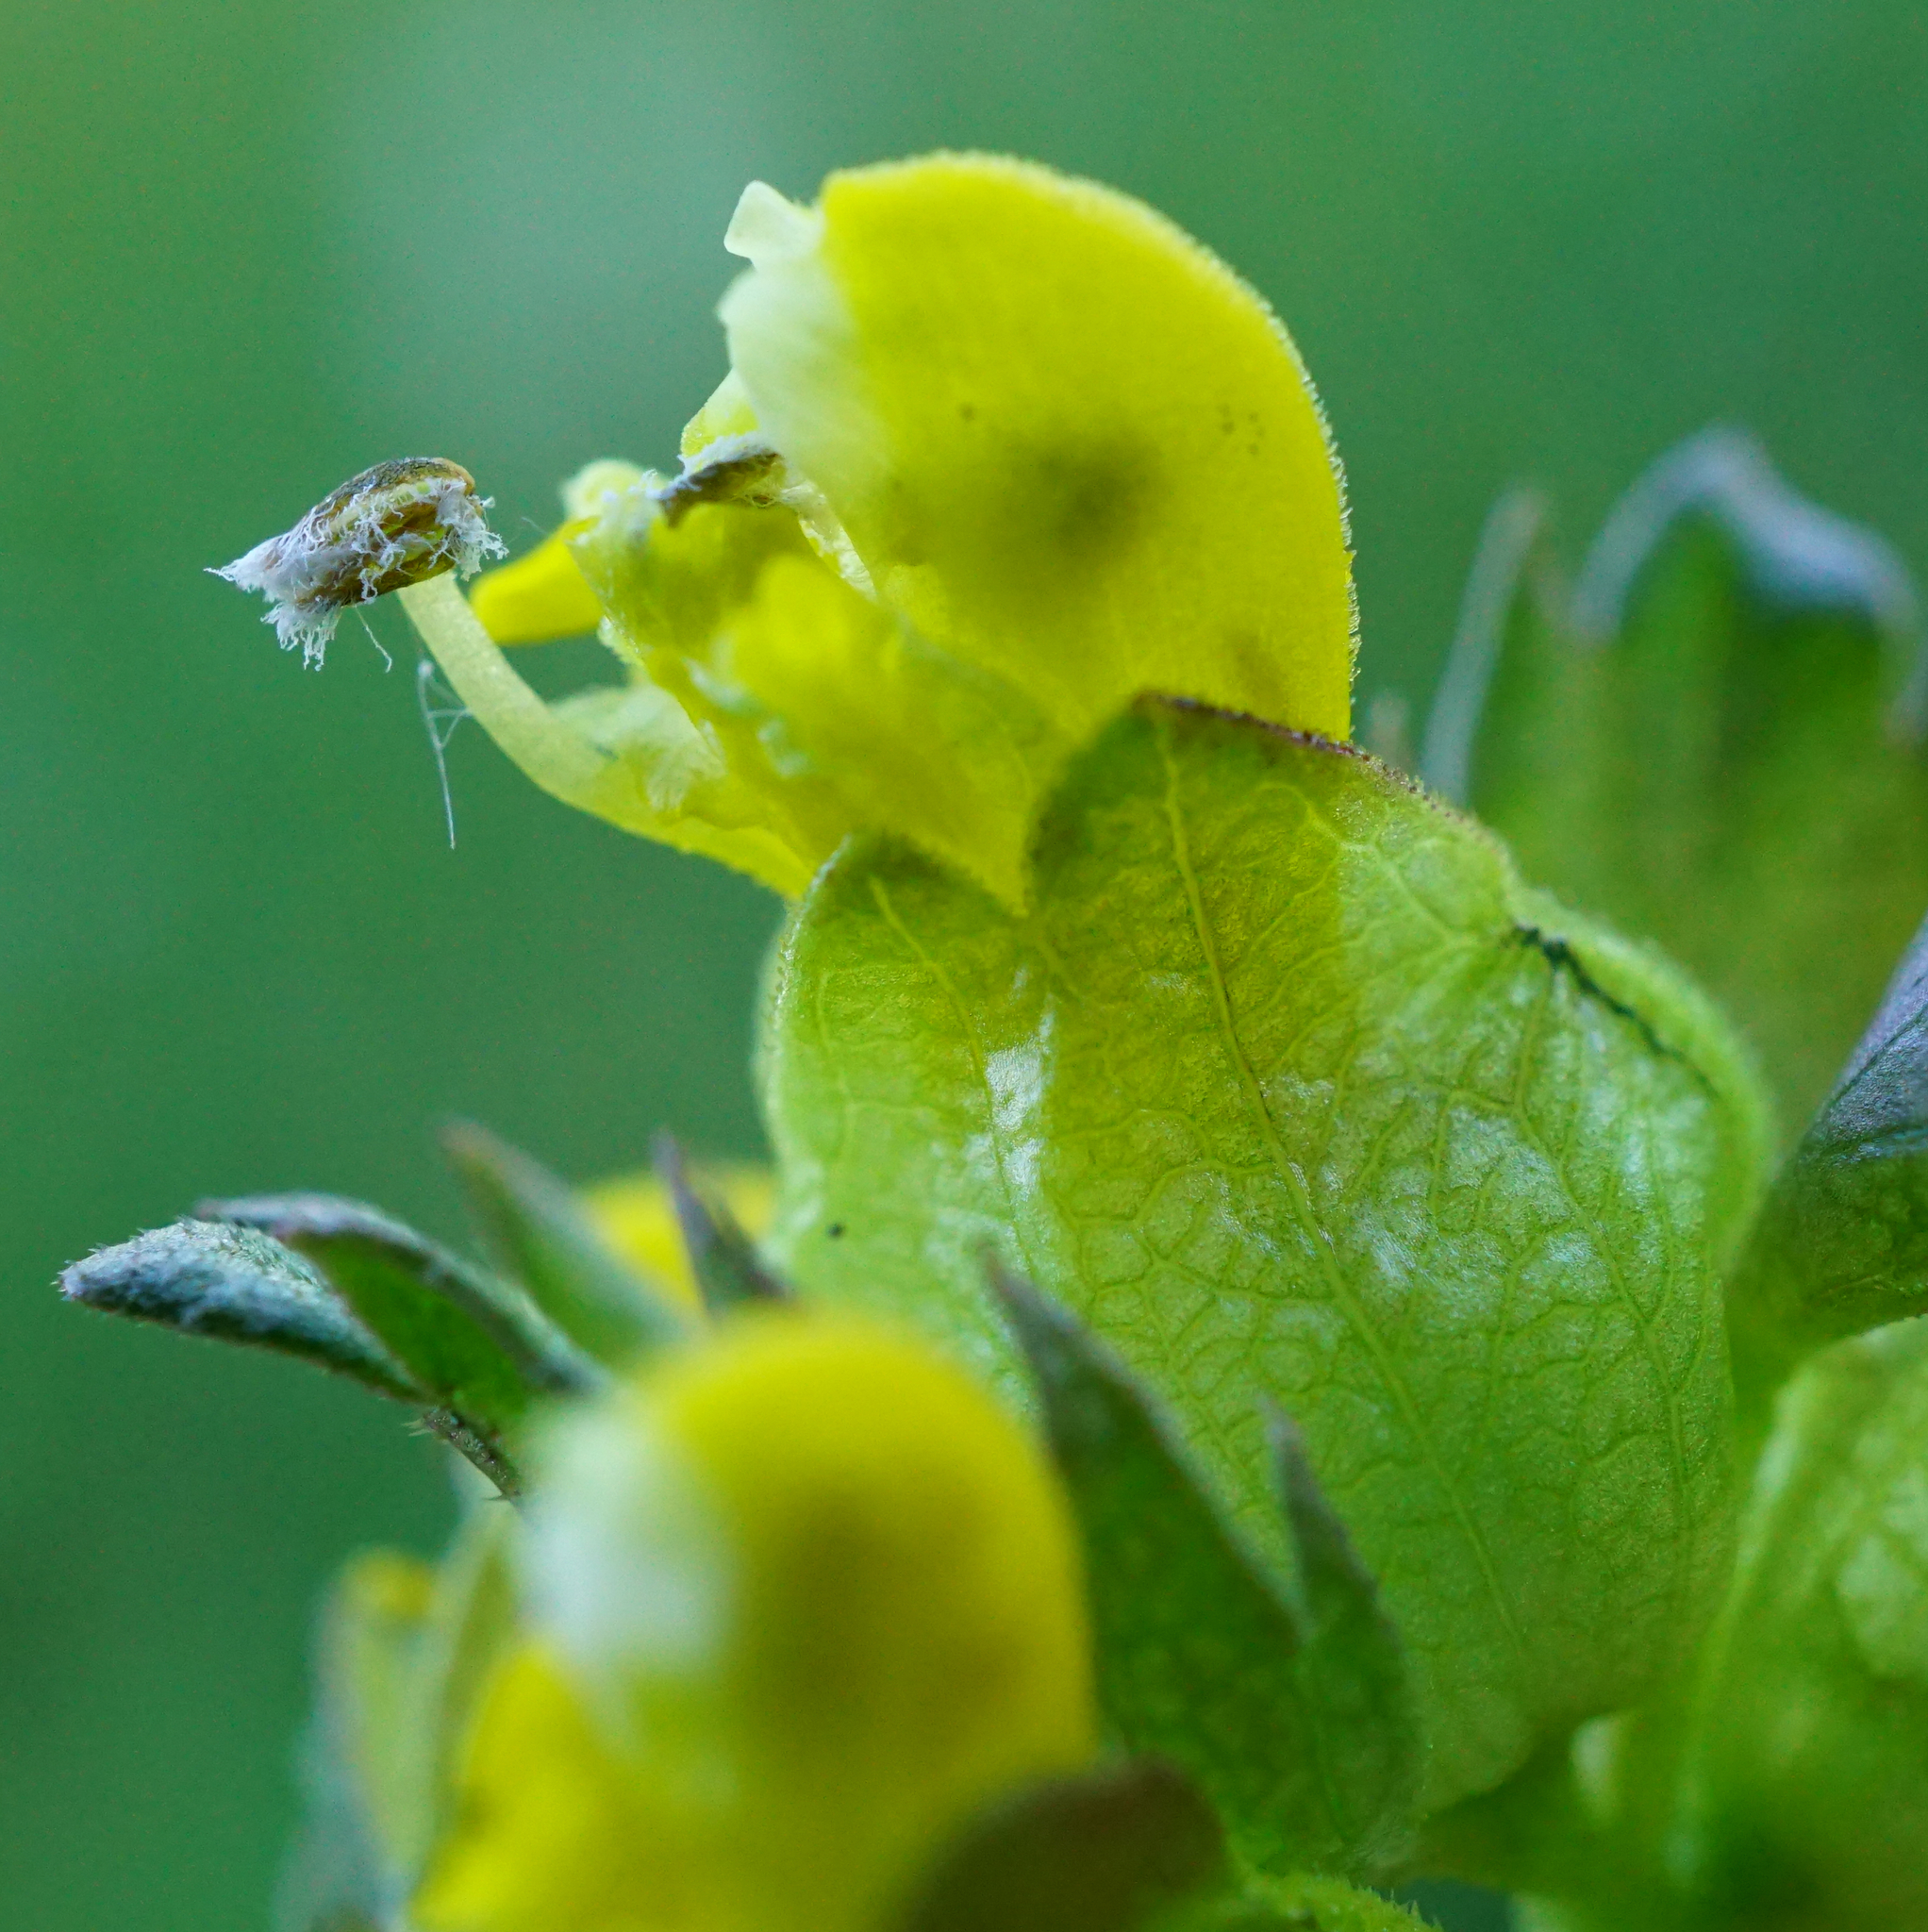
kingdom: Plantae
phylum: Tracheophyta
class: Magnoliopsida
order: Lamiales
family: Orobanchaceae
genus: Rhinanthus
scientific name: Rhinanthus minor
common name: Yellow-rattle
